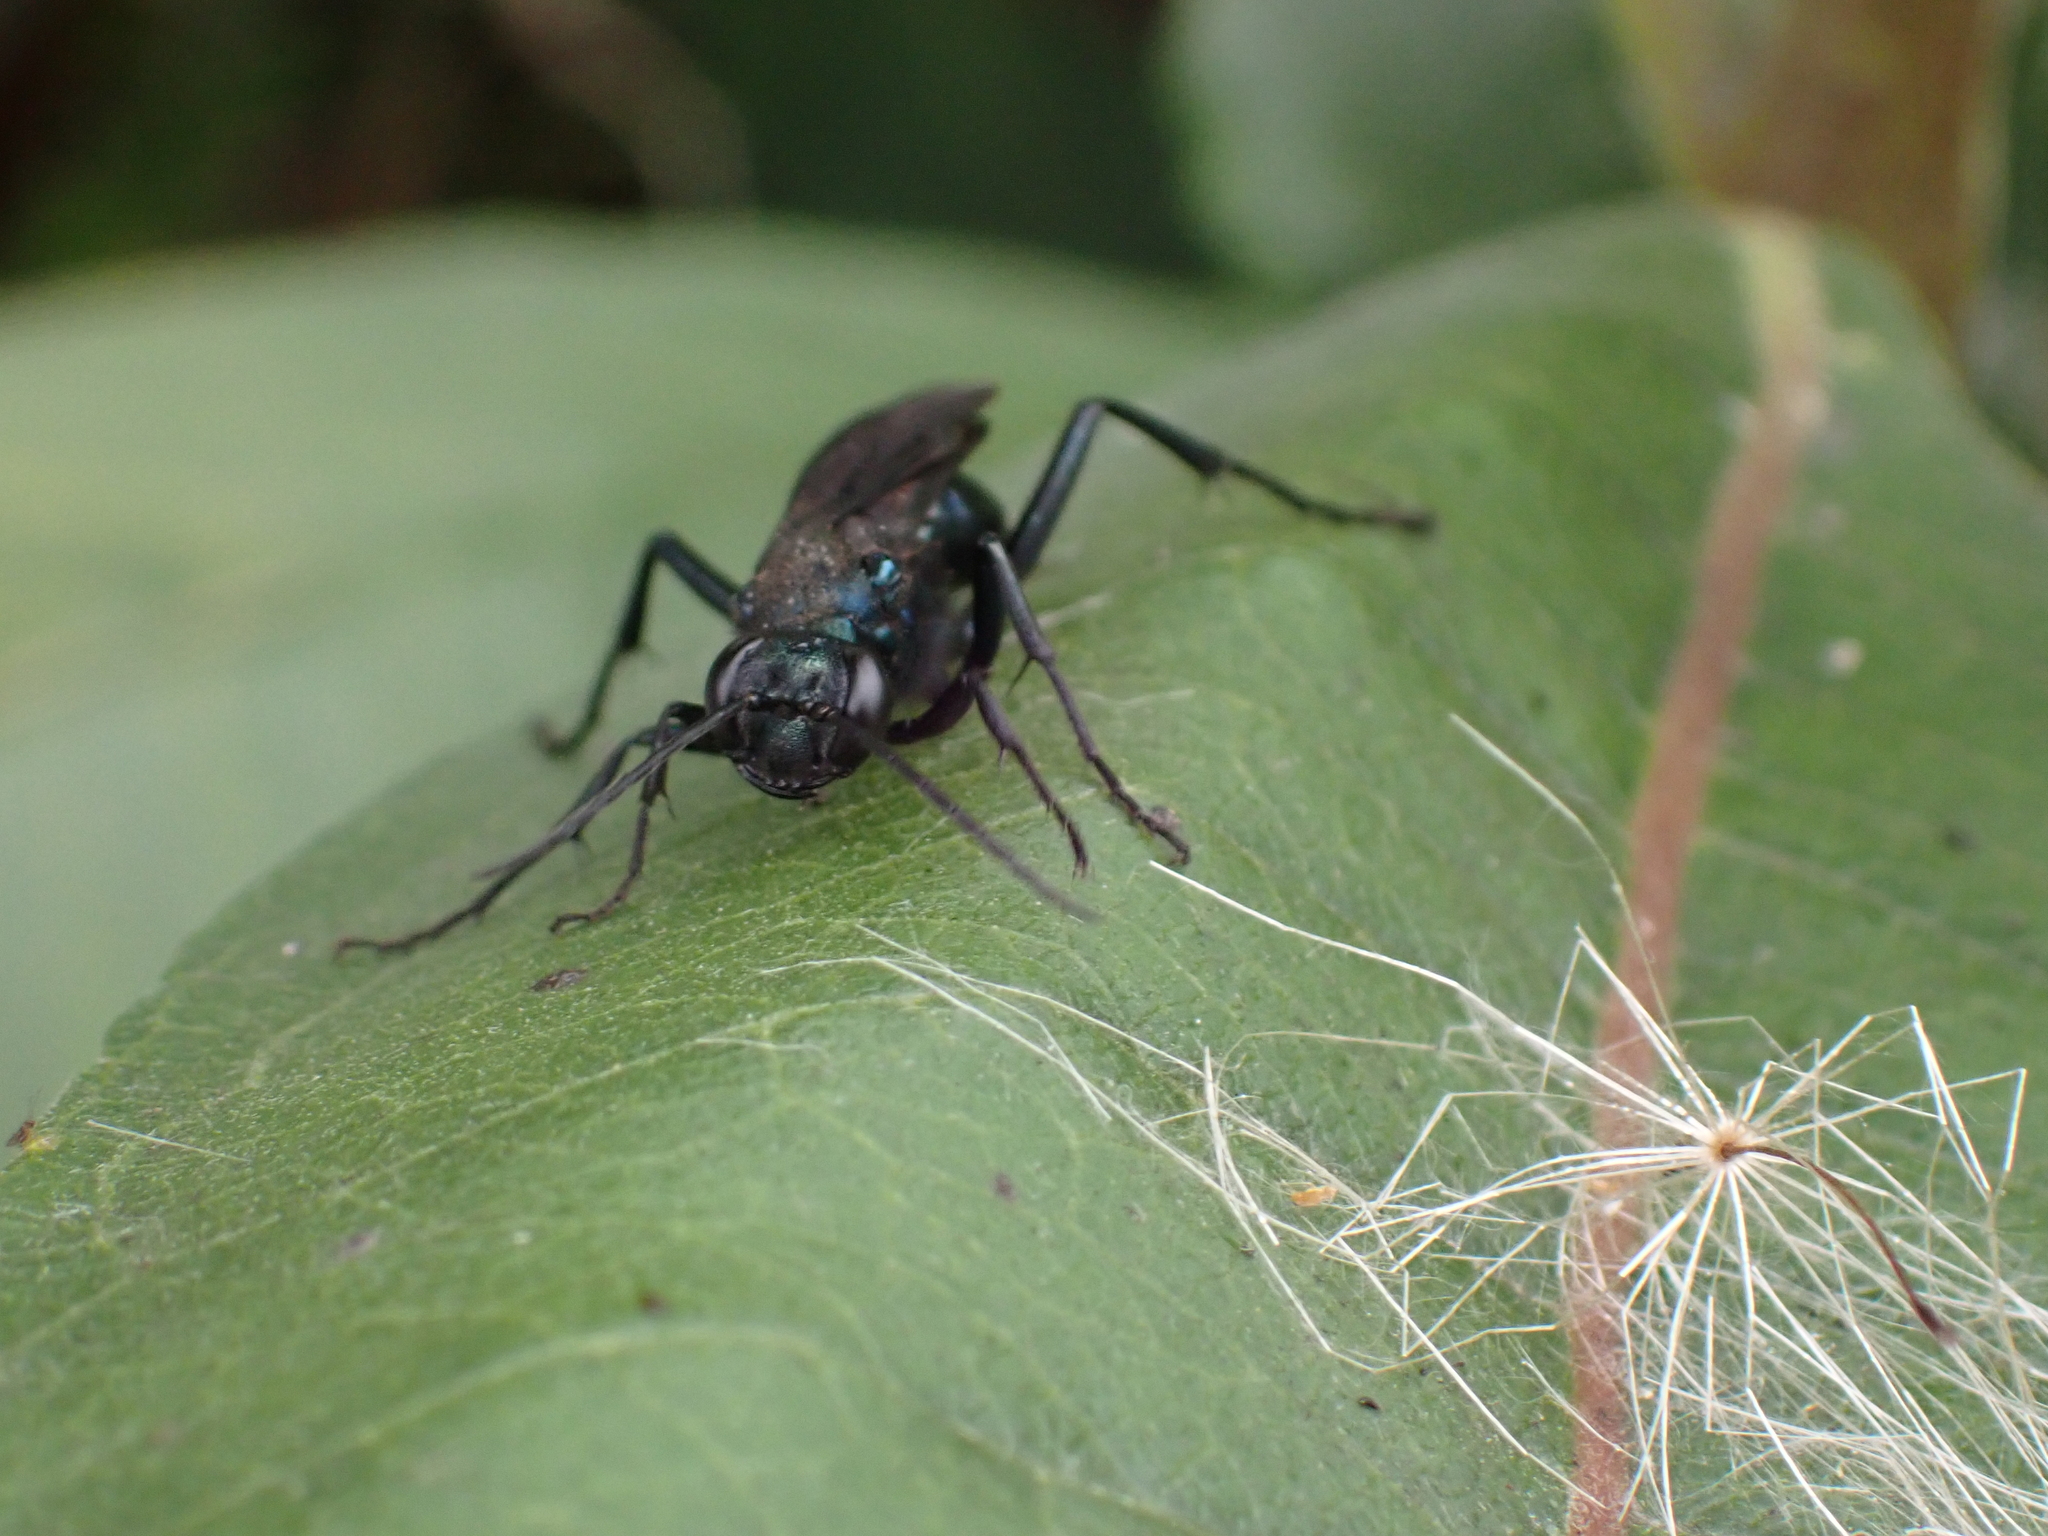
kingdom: Animalia
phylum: Arthropoda
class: Insecta
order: Hymenoptera
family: Sphecidae
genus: Chalybion
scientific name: Chalybion californicum
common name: Mud dauber
